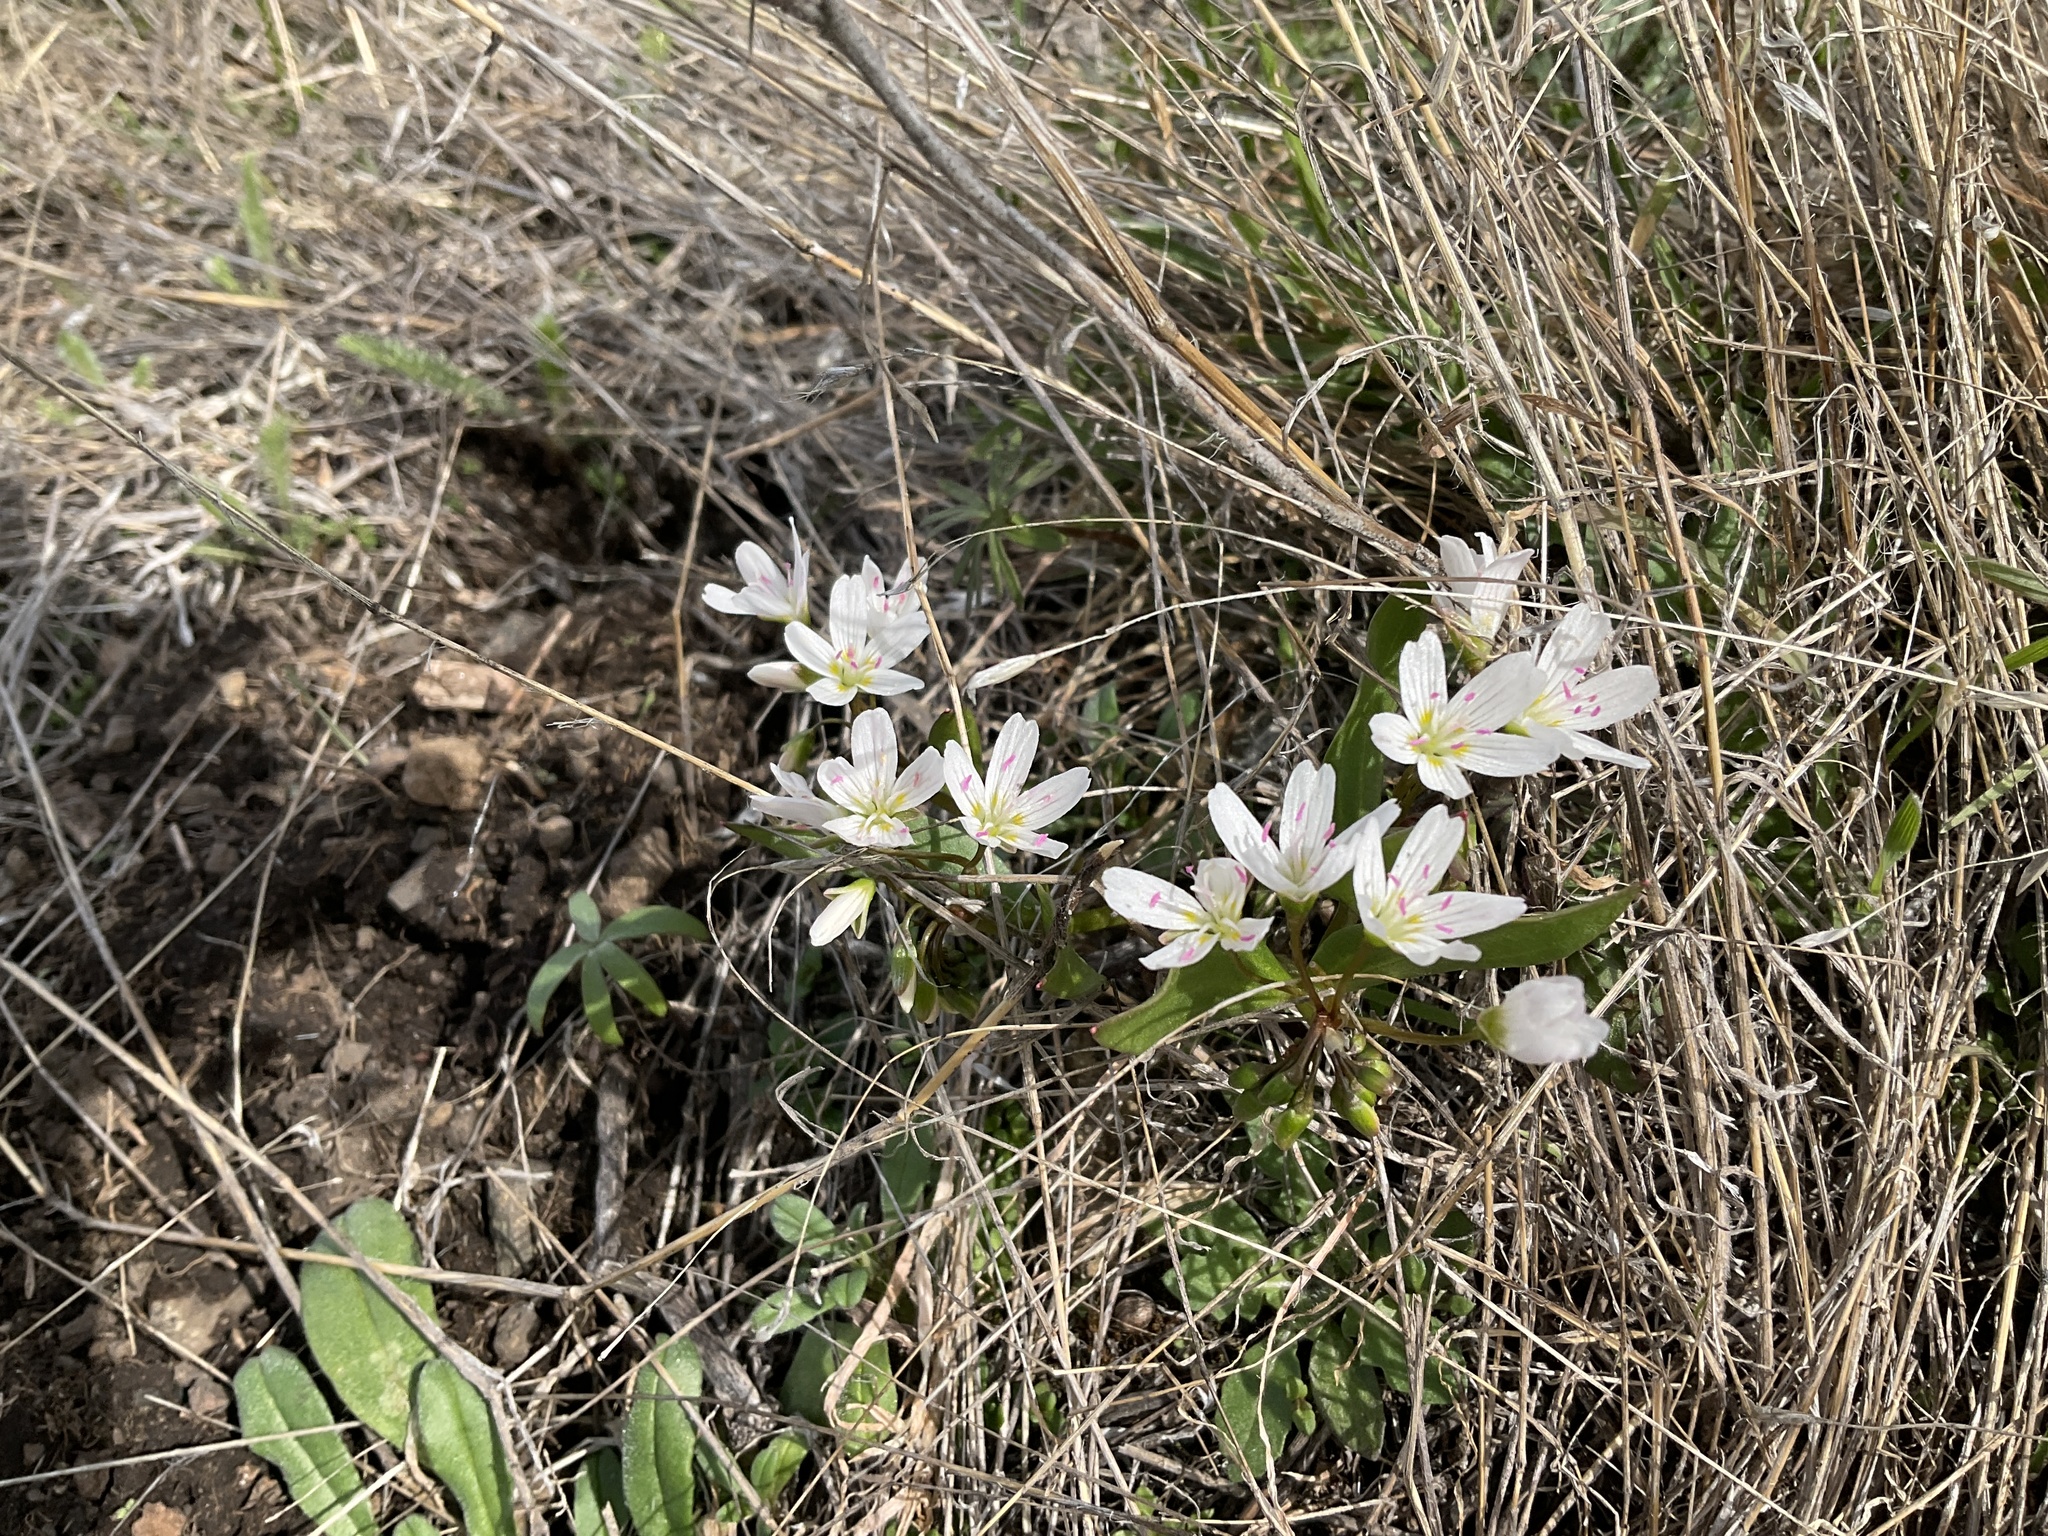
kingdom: Plantae
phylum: Tracheophyta
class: Magnoliopsida
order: Caryophyllales
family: Montiaceae
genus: Claytonia
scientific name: Claytonia lanceolata
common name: Western spring-beauty
